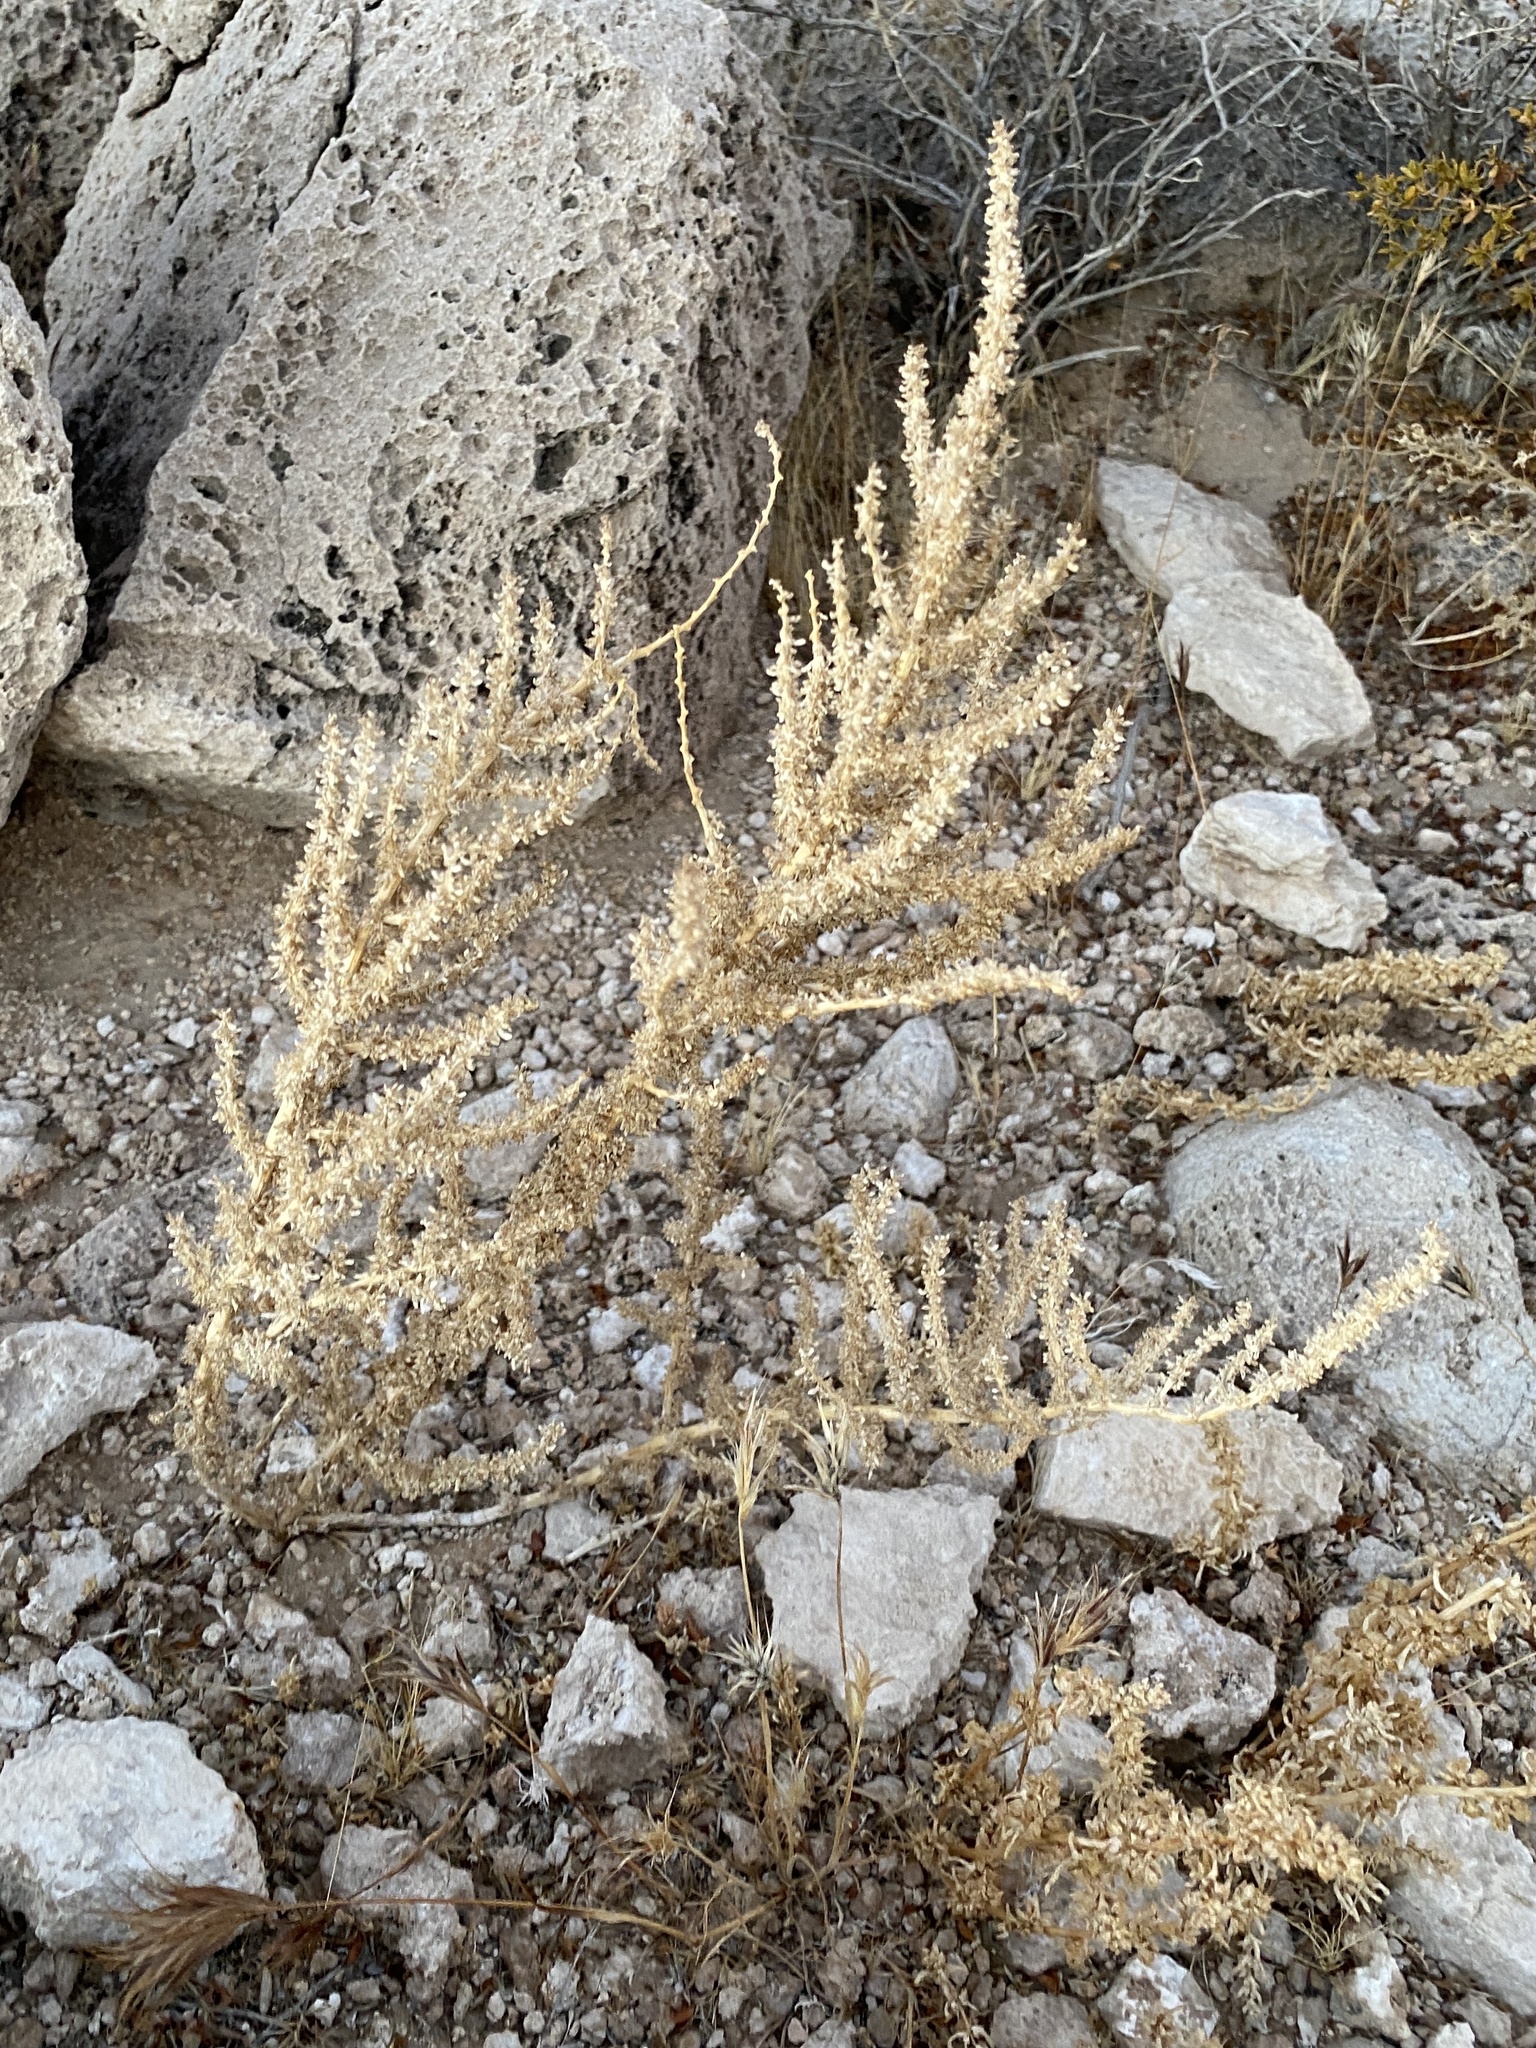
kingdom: Plantae
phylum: Tracheophyta
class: Magnoliopsida
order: Caryophyllales
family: Amaranthaceae
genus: Halogeton
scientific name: Halogeton glomeratus
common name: Saltlover
